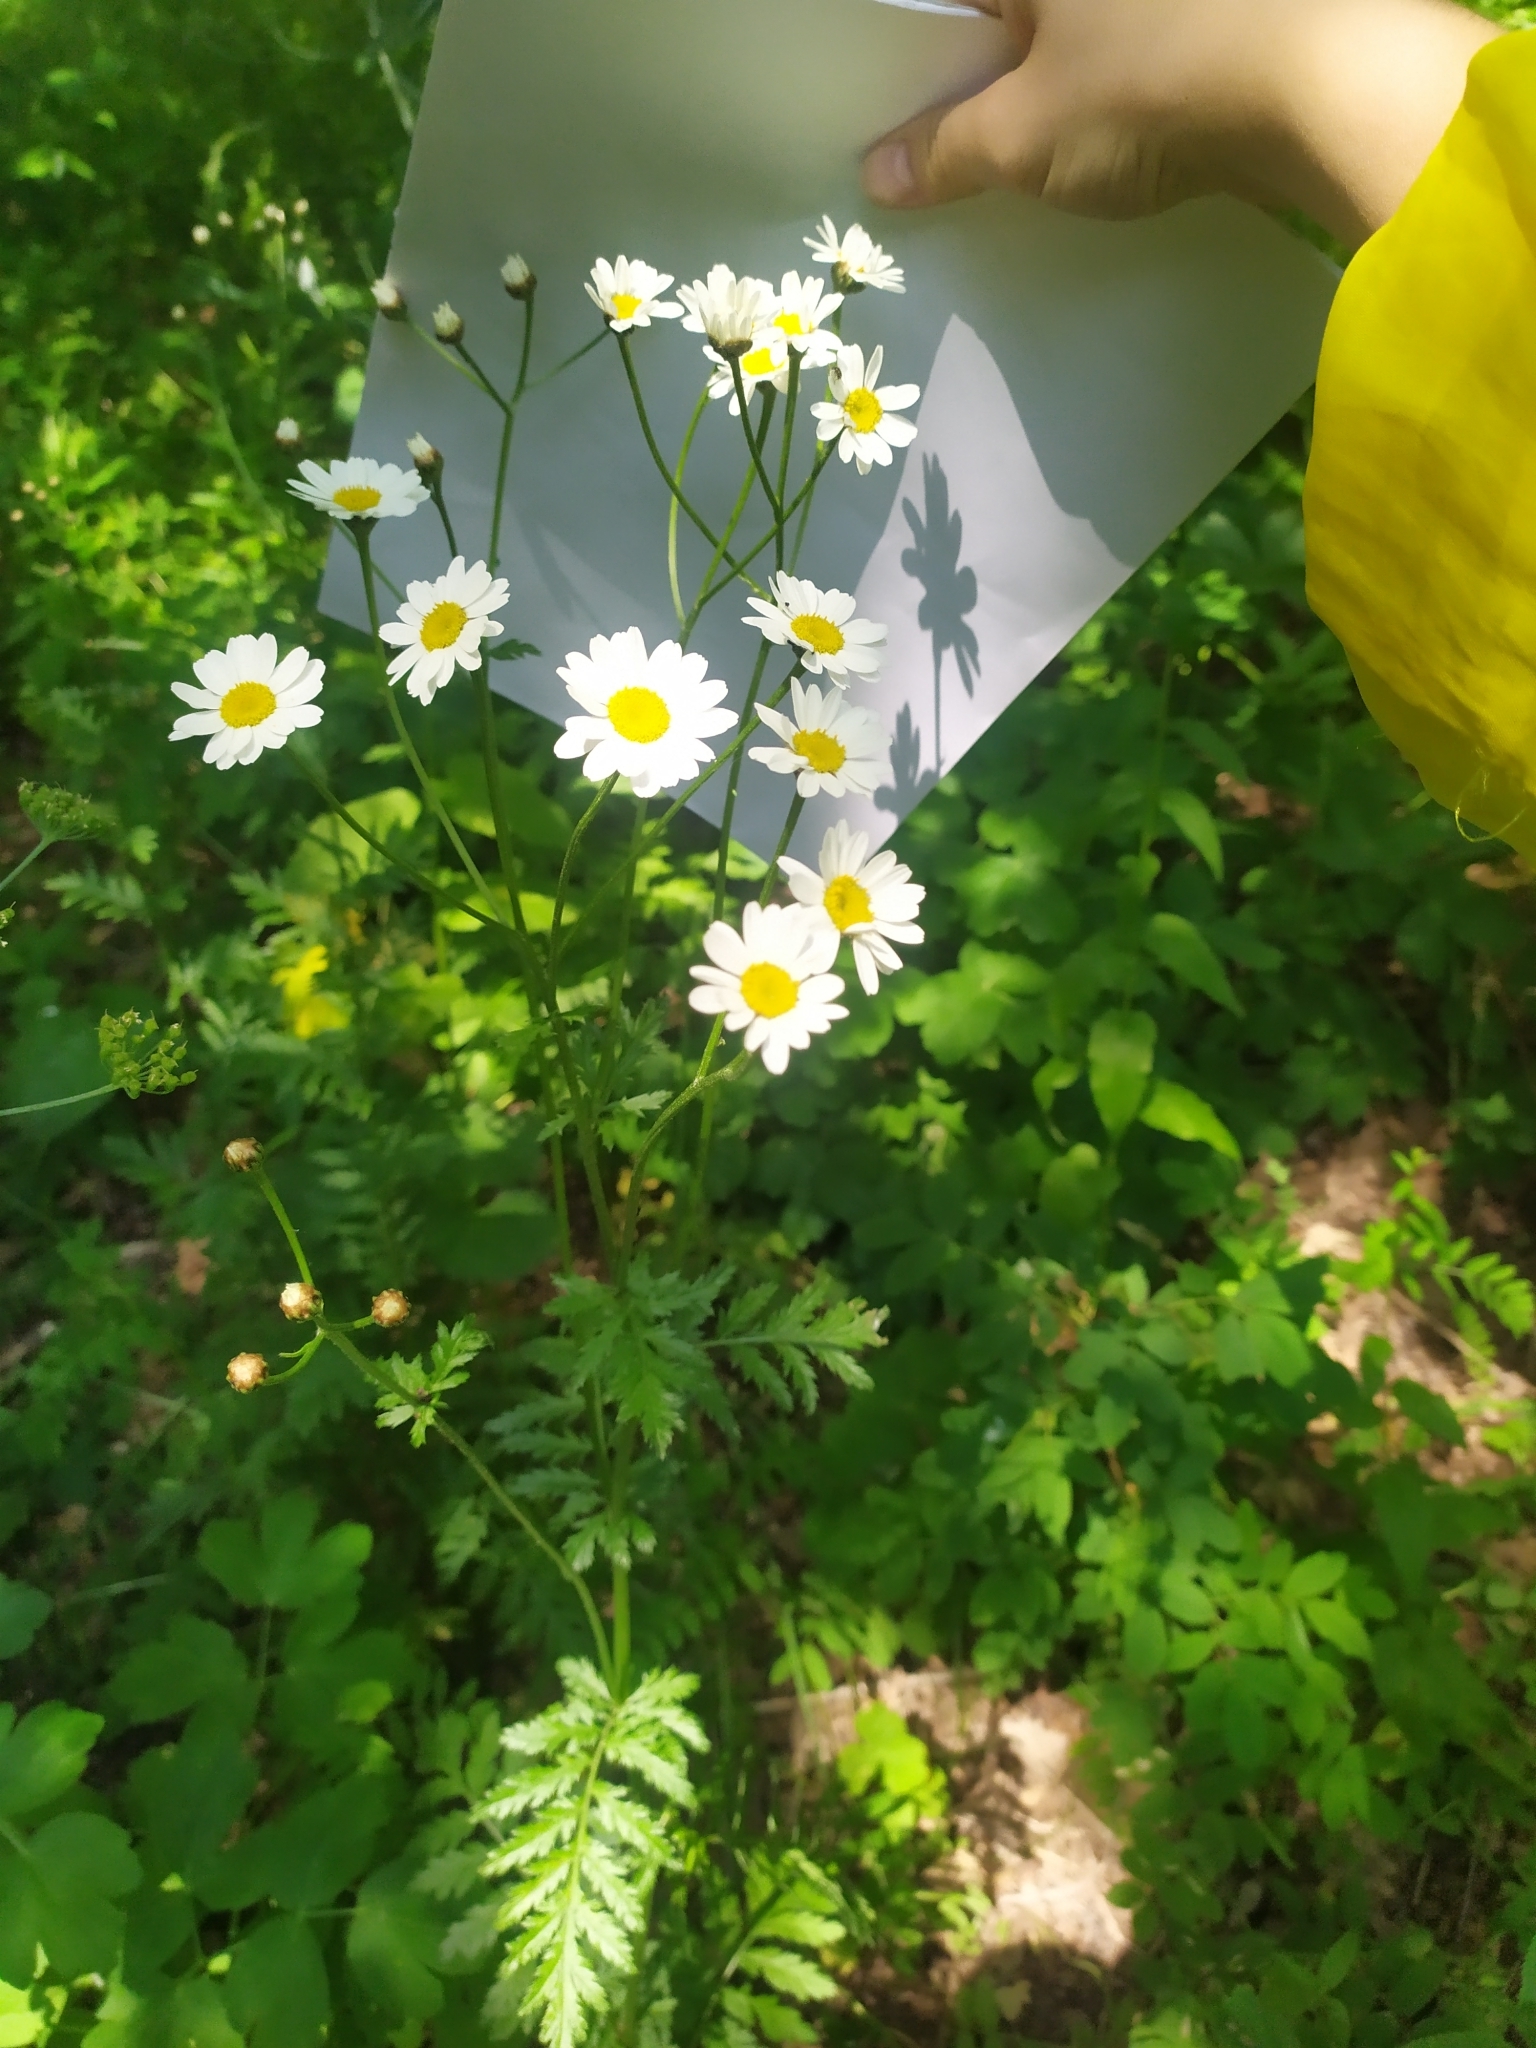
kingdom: Plantae
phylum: Tracheophyta
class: Magnoliopsida
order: Asterales
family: Asteraceae
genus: Tanacetum
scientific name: Tanacetum corymbosum
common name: Scentless feverfew
